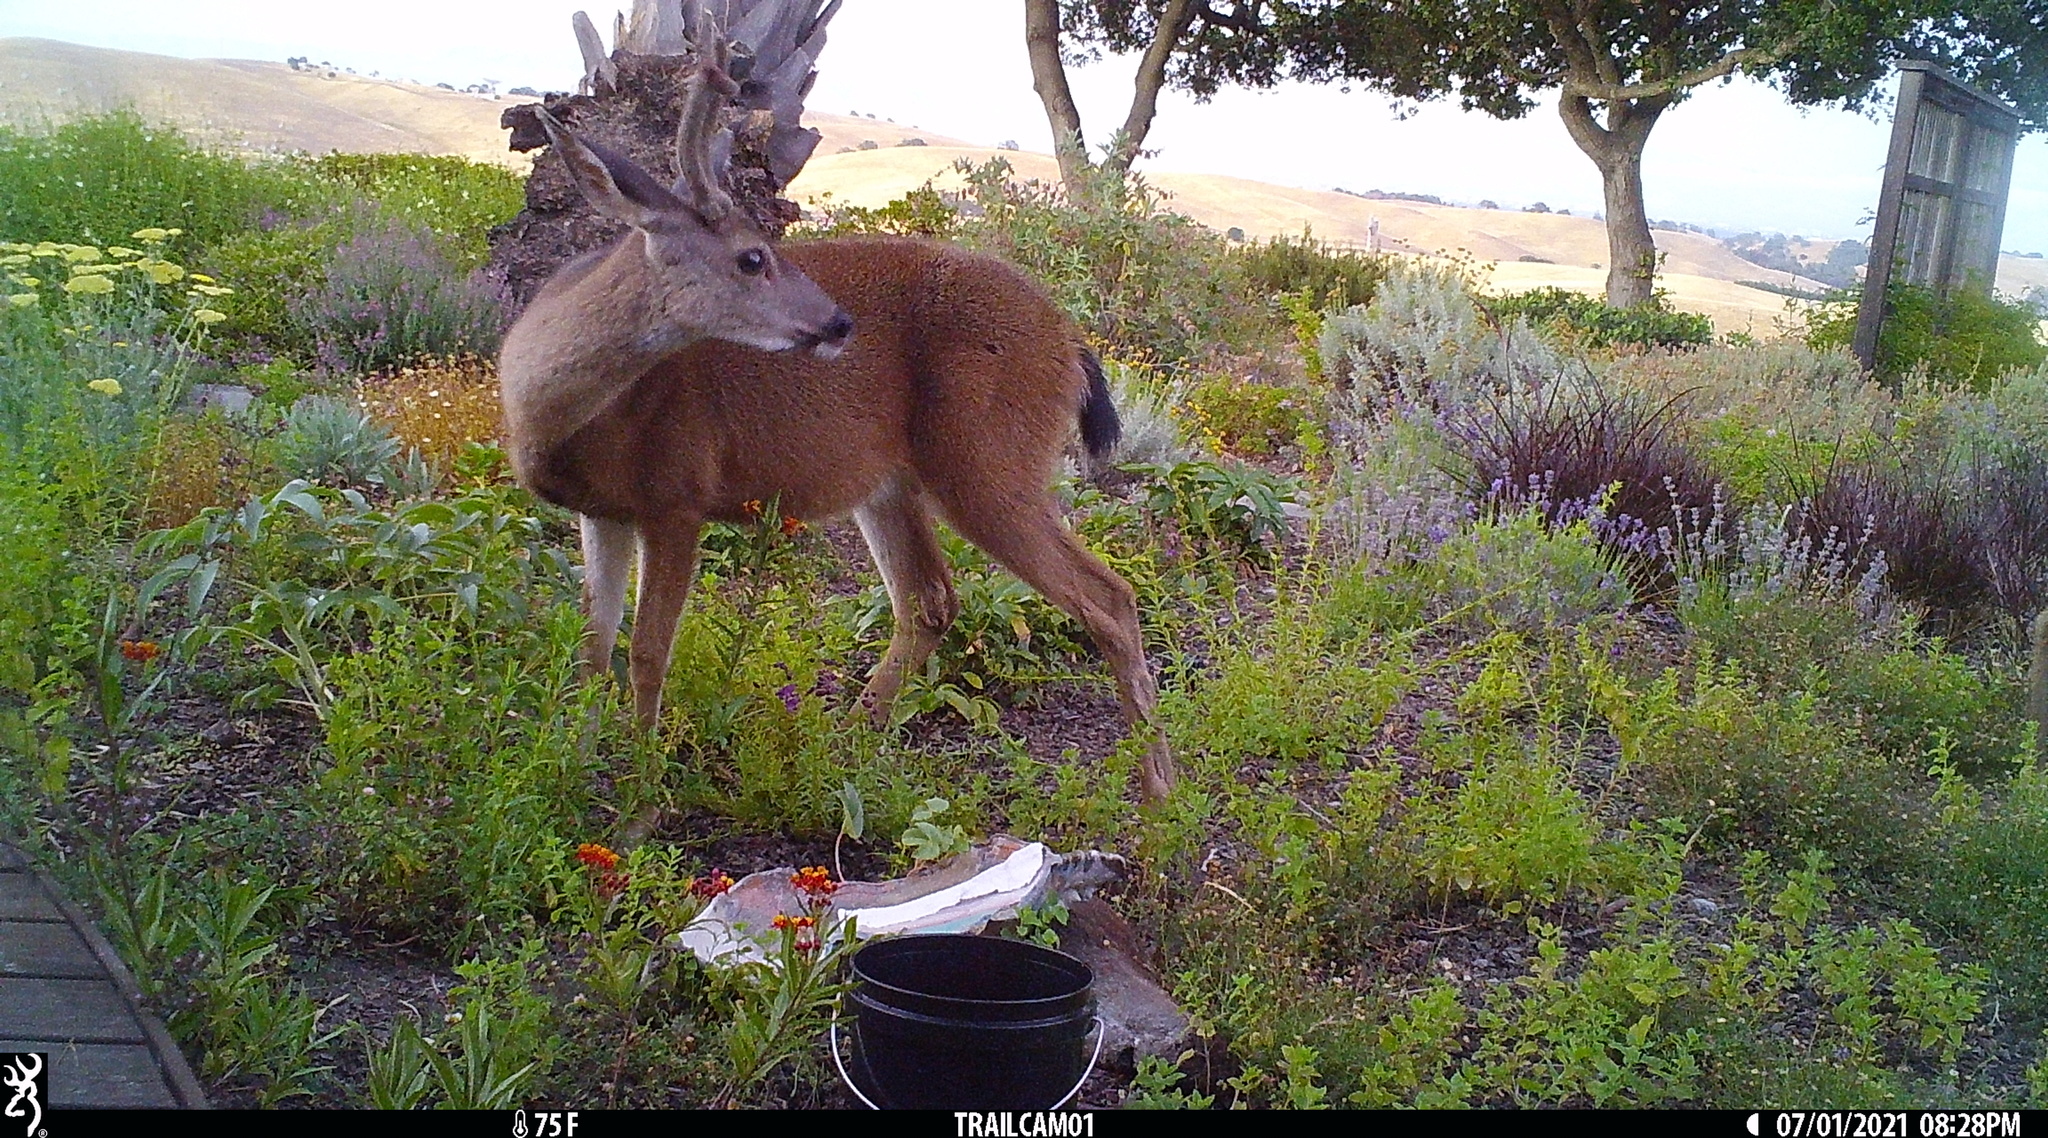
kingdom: Animalia
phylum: Chordata
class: Mammalia
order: Artiodactyla
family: Cervidae
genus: Odocoileus
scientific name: Odocoileus hemionus
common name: Mule deer
